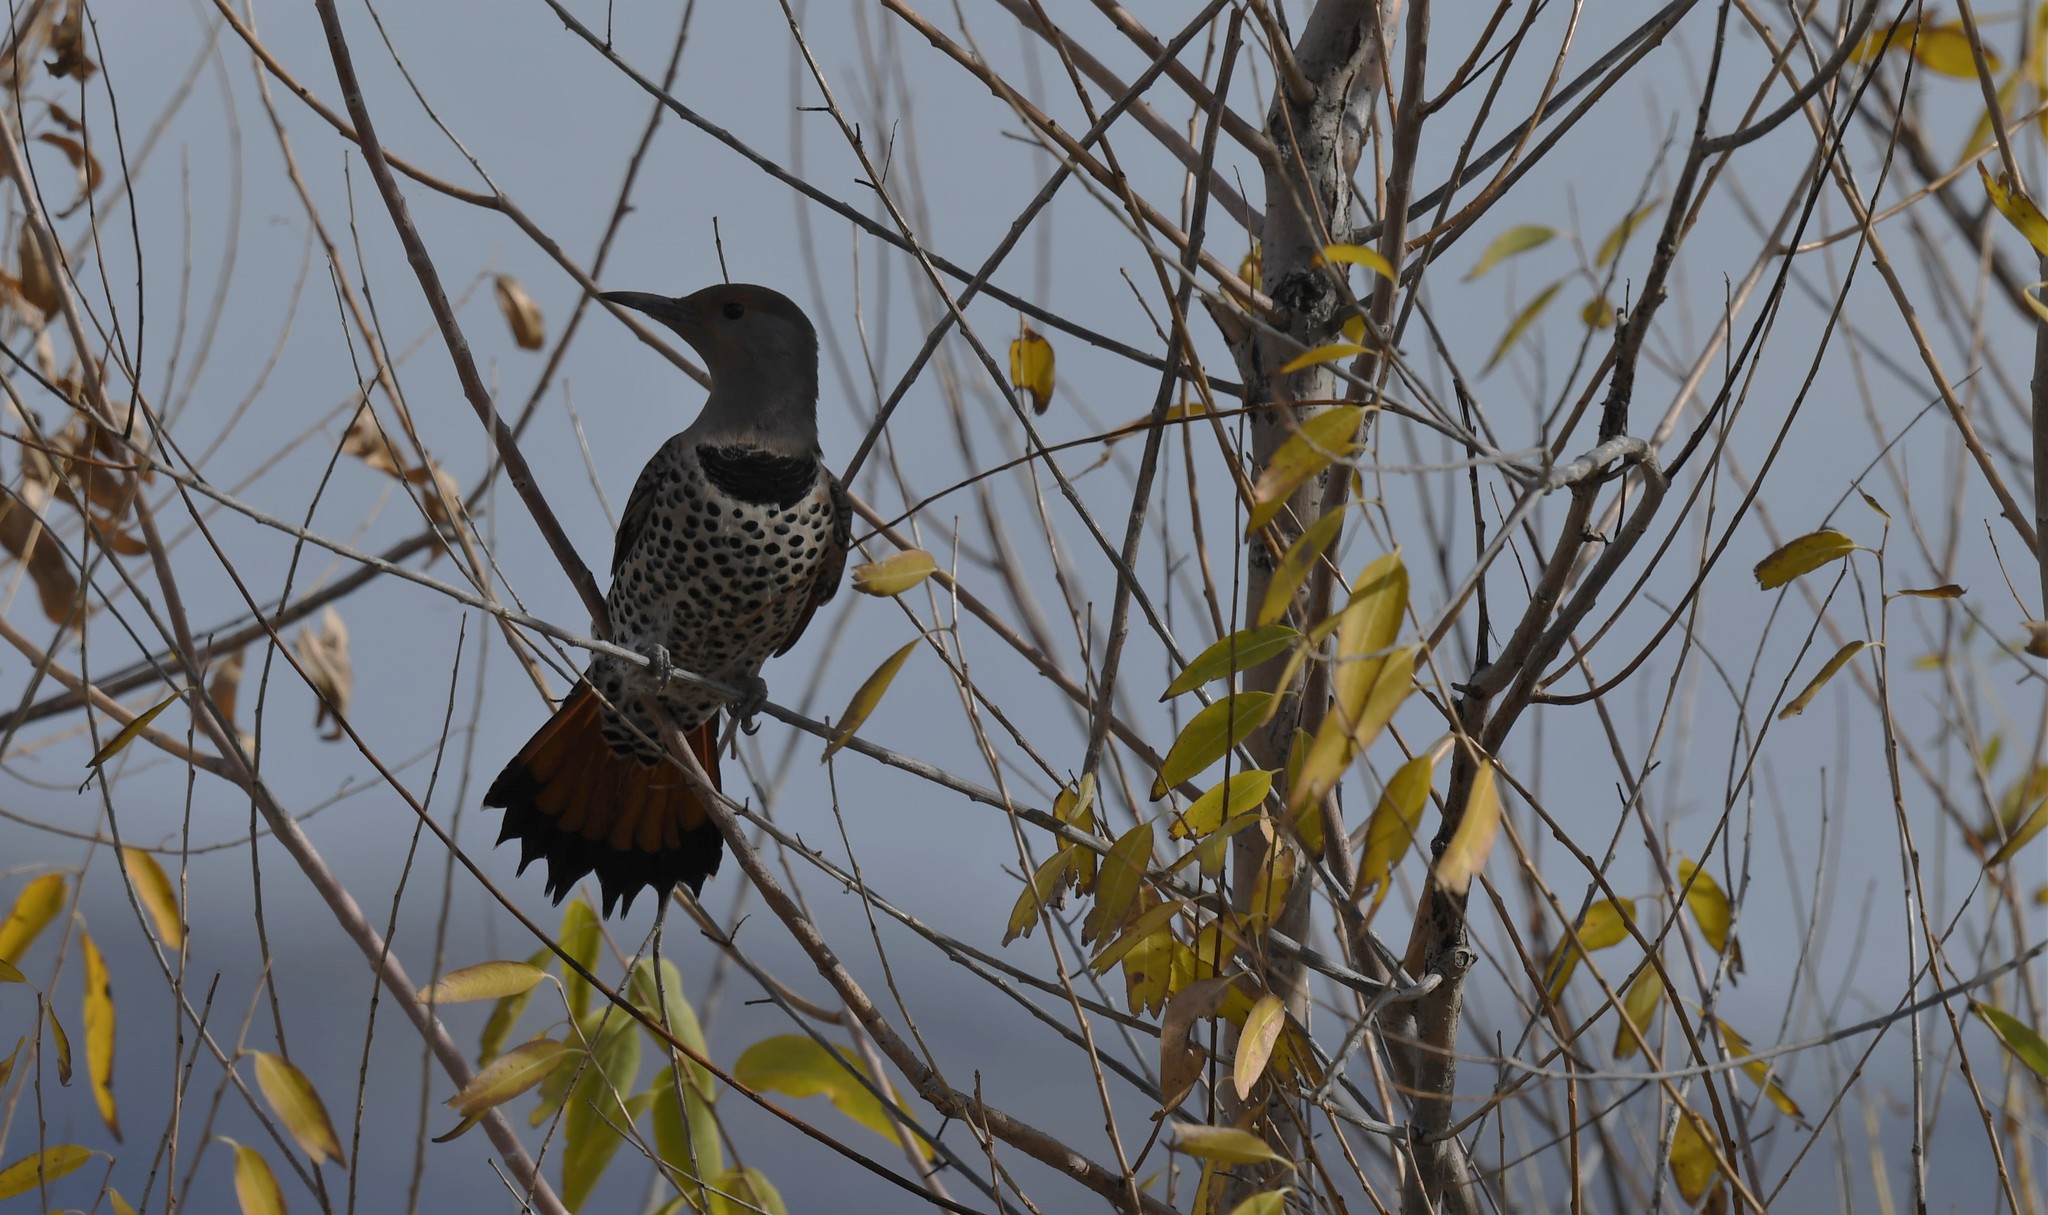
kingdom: Animalia
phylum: Chordata
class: Aves
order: Piciformes
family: Picidae
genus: Colaptes
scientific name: Colaptes auratus
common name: Northern flicker
